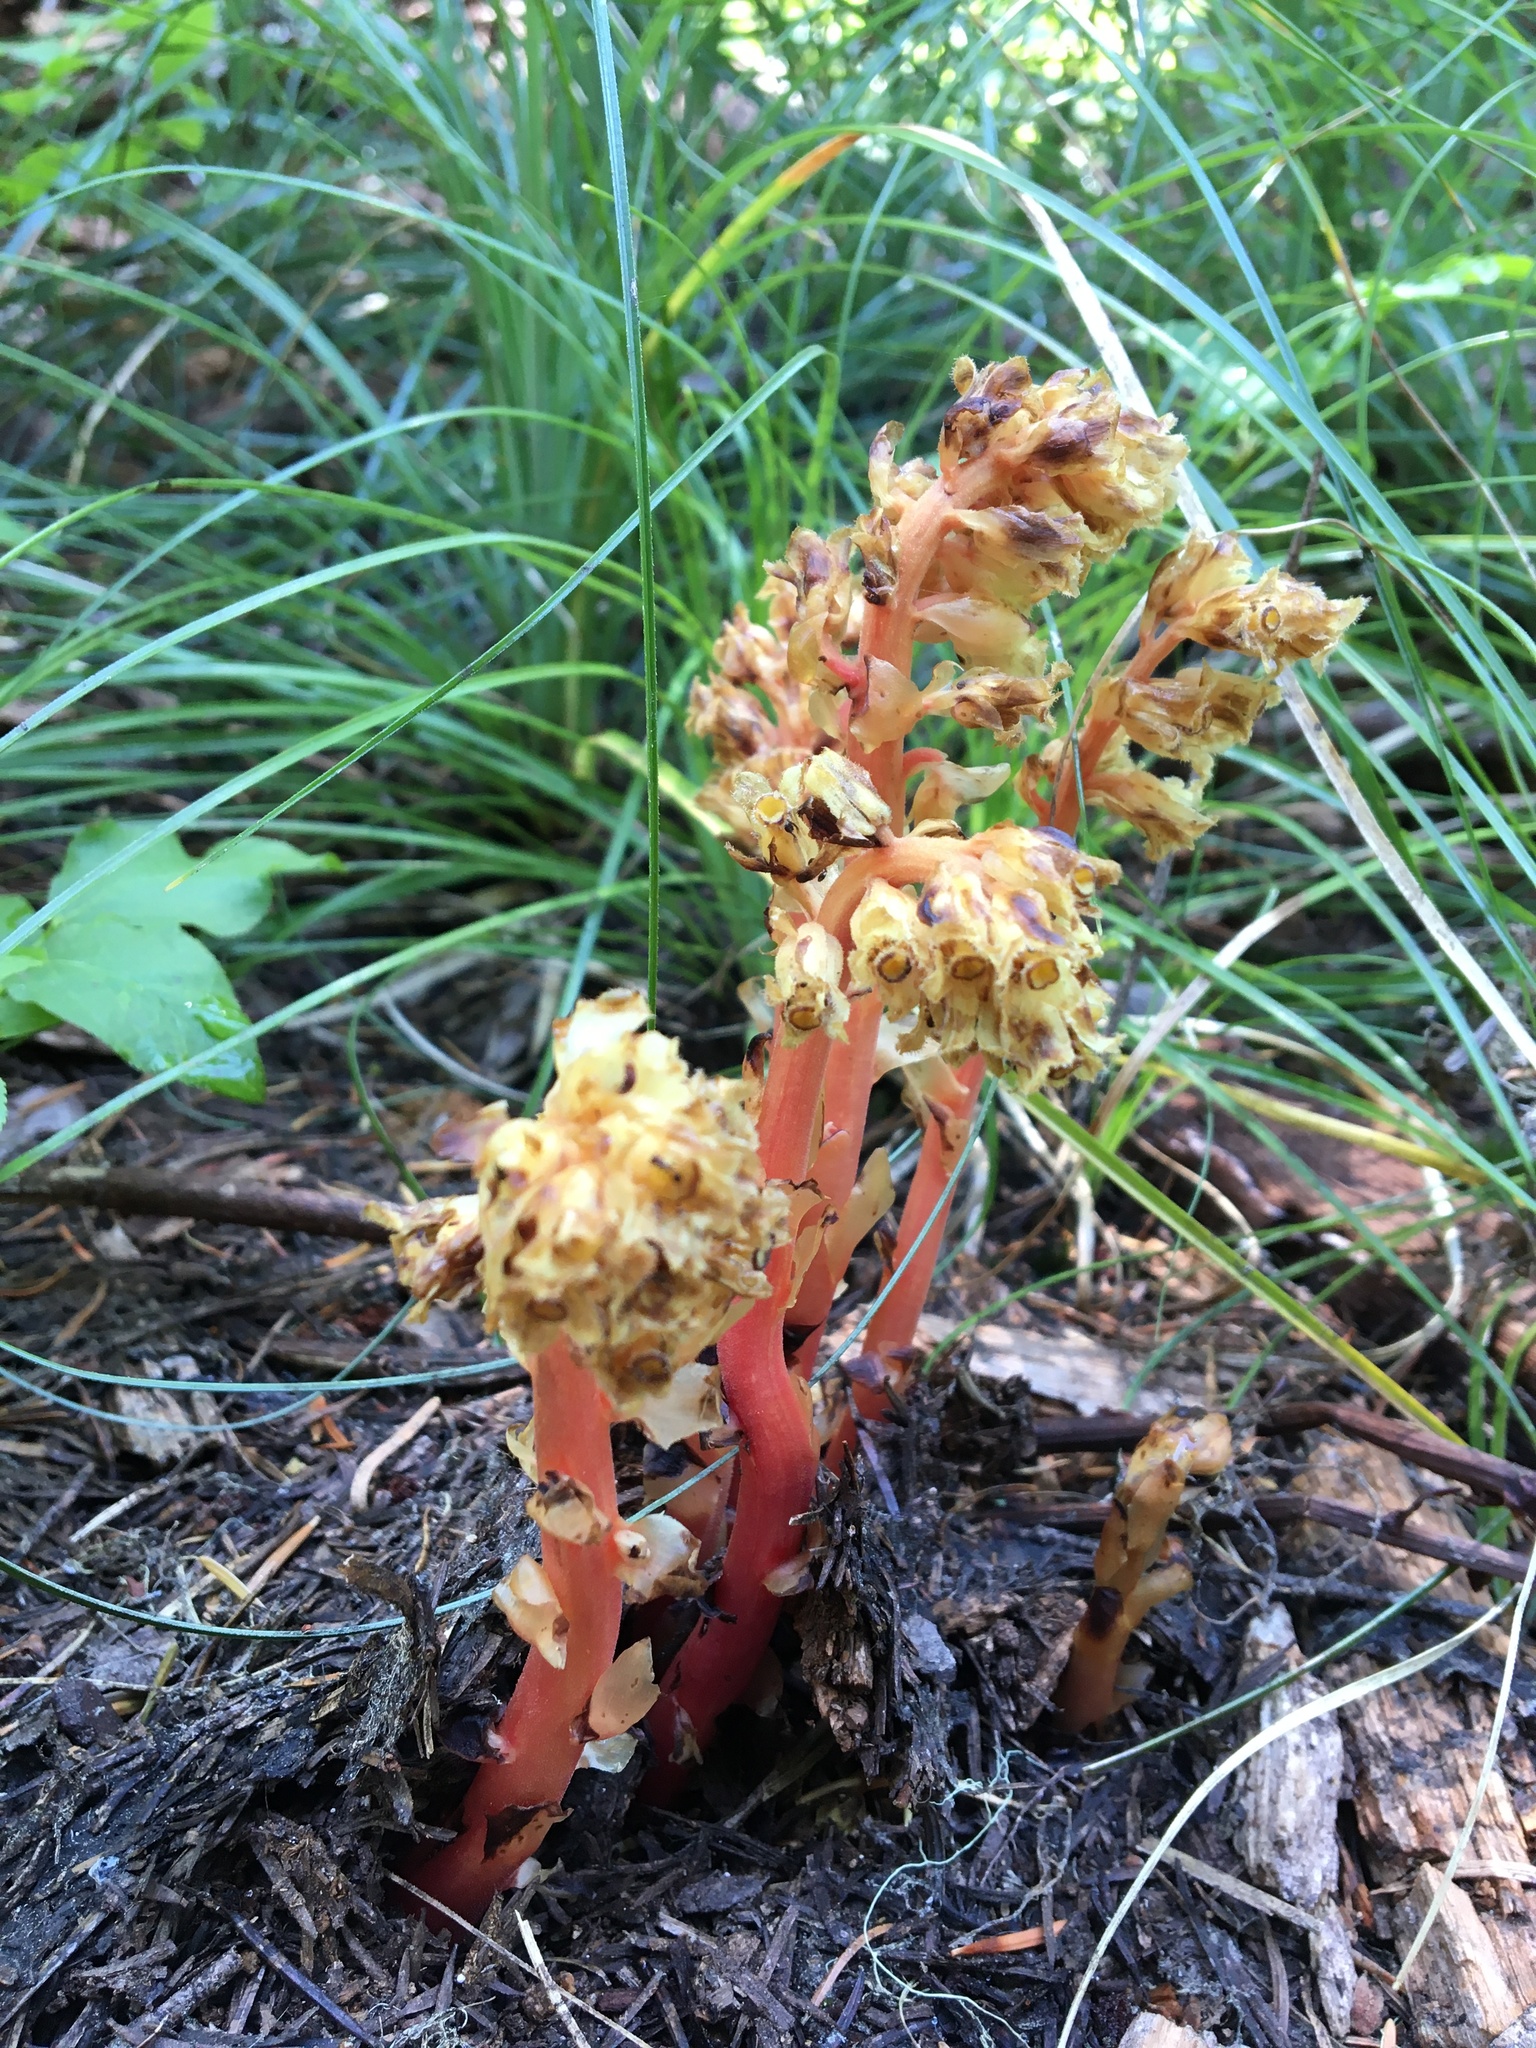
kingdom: Plantae
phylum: Tracheophyta
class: Magnoliopsida
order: Ericales
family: Ericaceae
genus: Hypopitys
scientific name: Hypopitys monotropa
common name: Yellow bird's-nest
